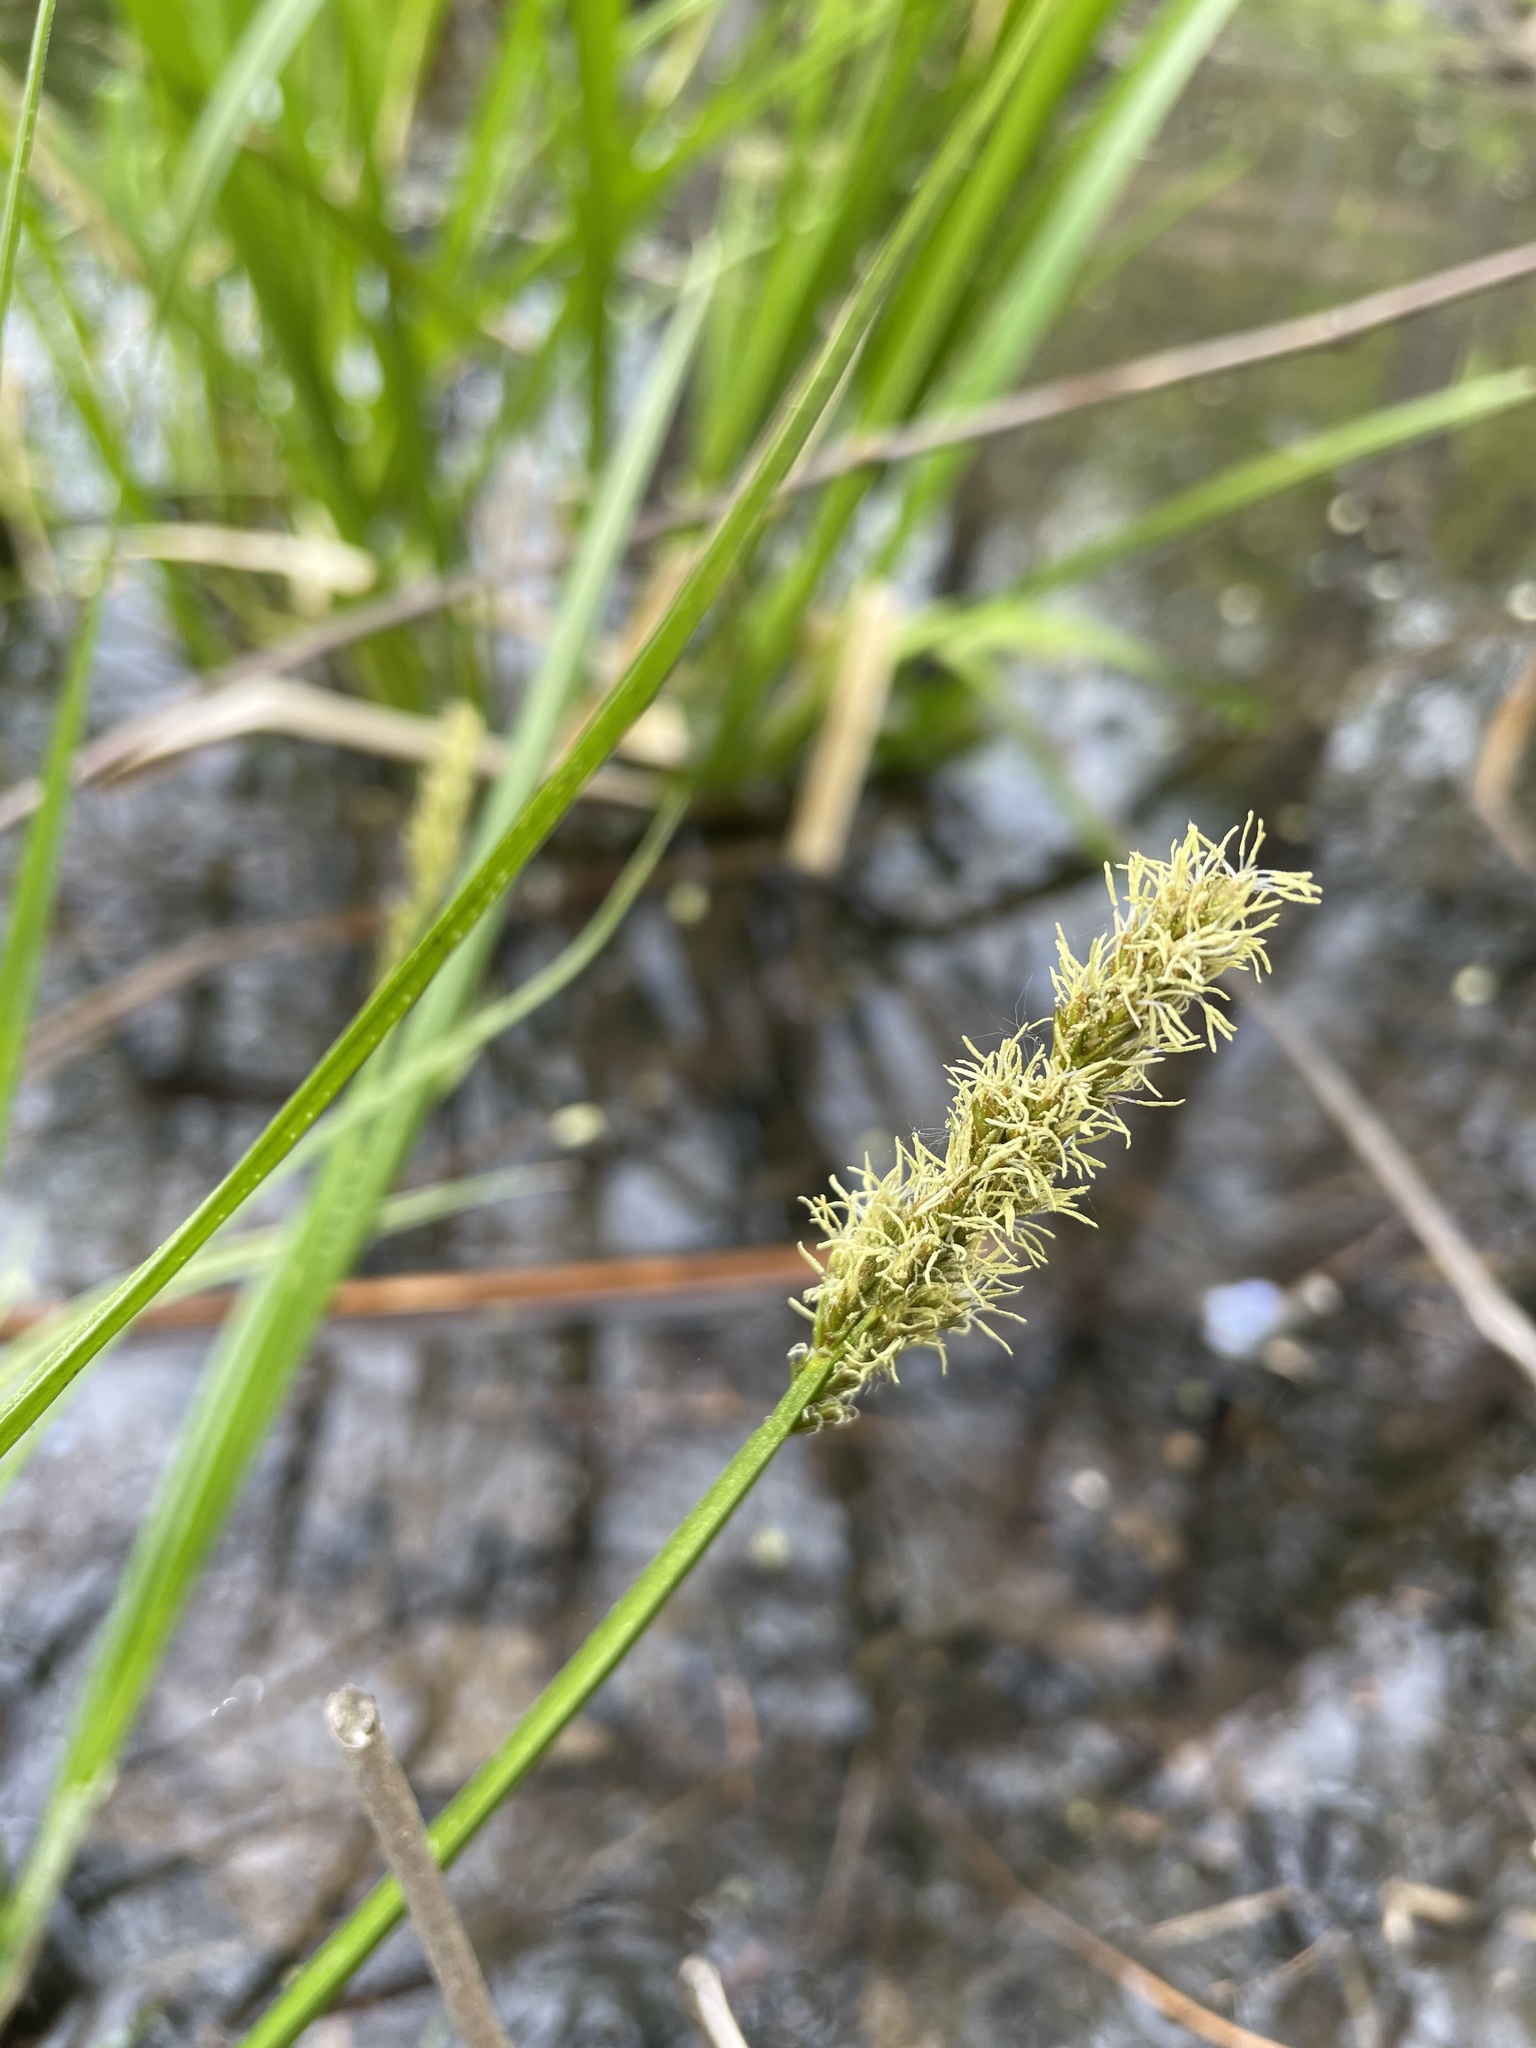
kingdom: Plantae
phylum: Tracheophyta
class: Liliopsida
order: Poales
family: Cyperaceae
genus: Carex
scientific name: Carex stipata
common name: Awl-fruited sedge
